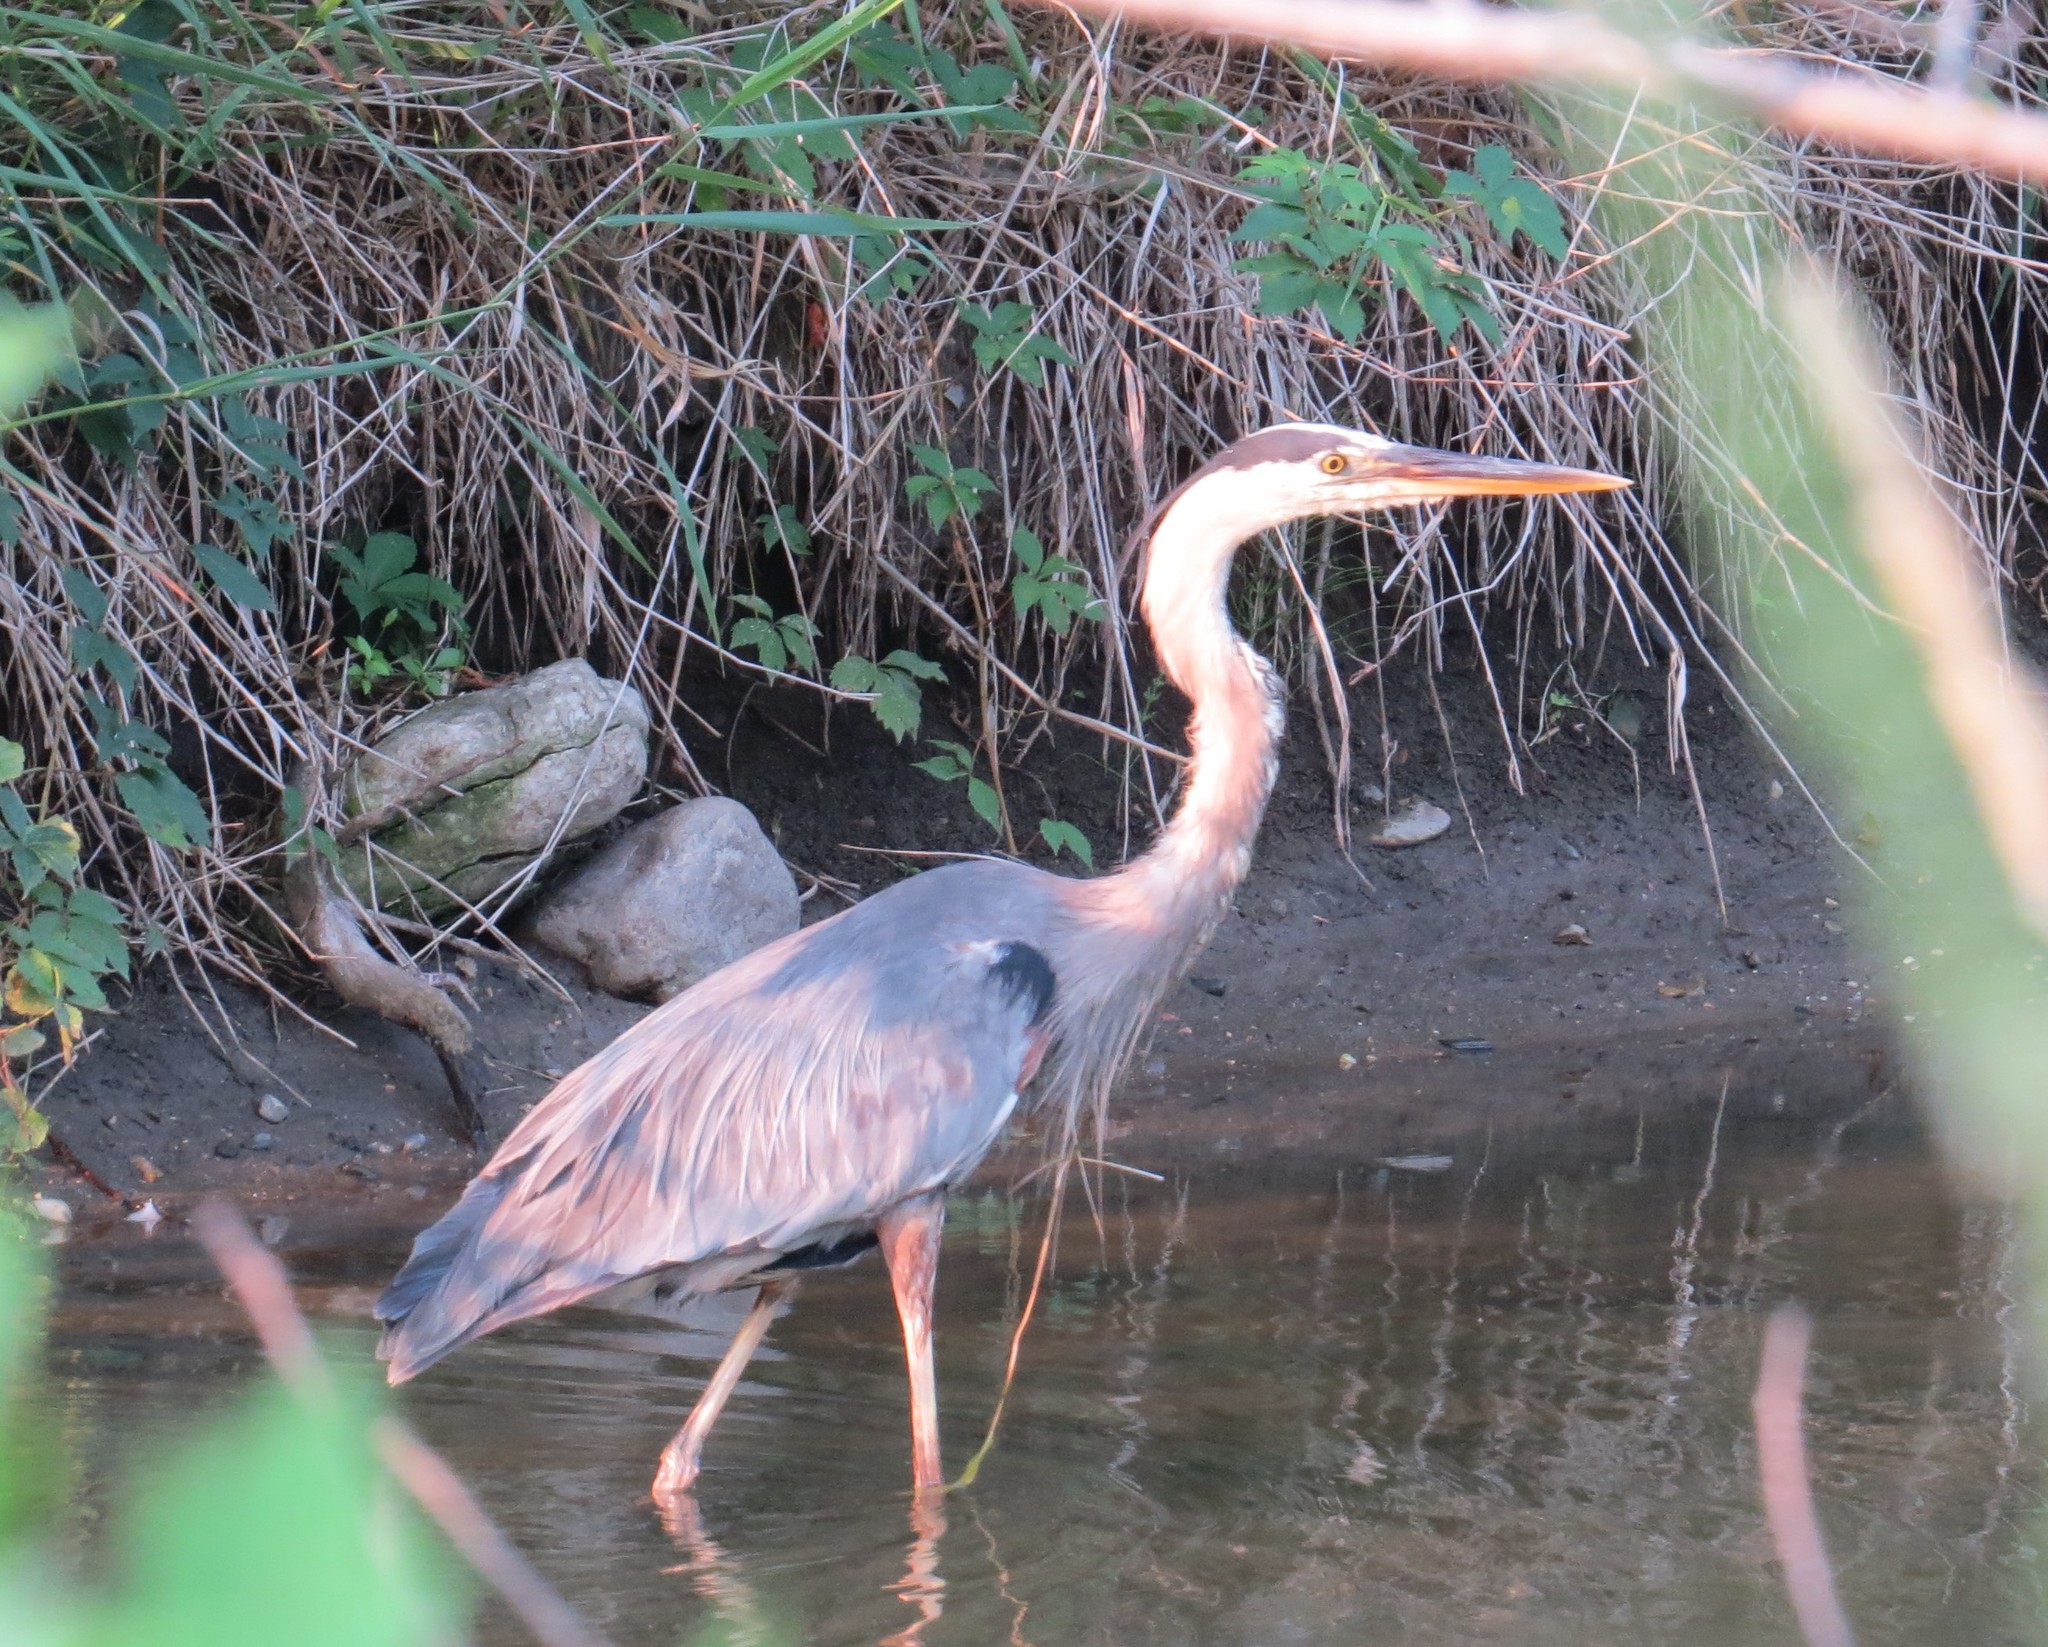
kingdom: Animalia
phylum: Chordata
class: Aves
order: Pelecaniformes
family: Ardeidae
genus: Ardea
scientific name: Ardea herodias
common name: Great blue heron
